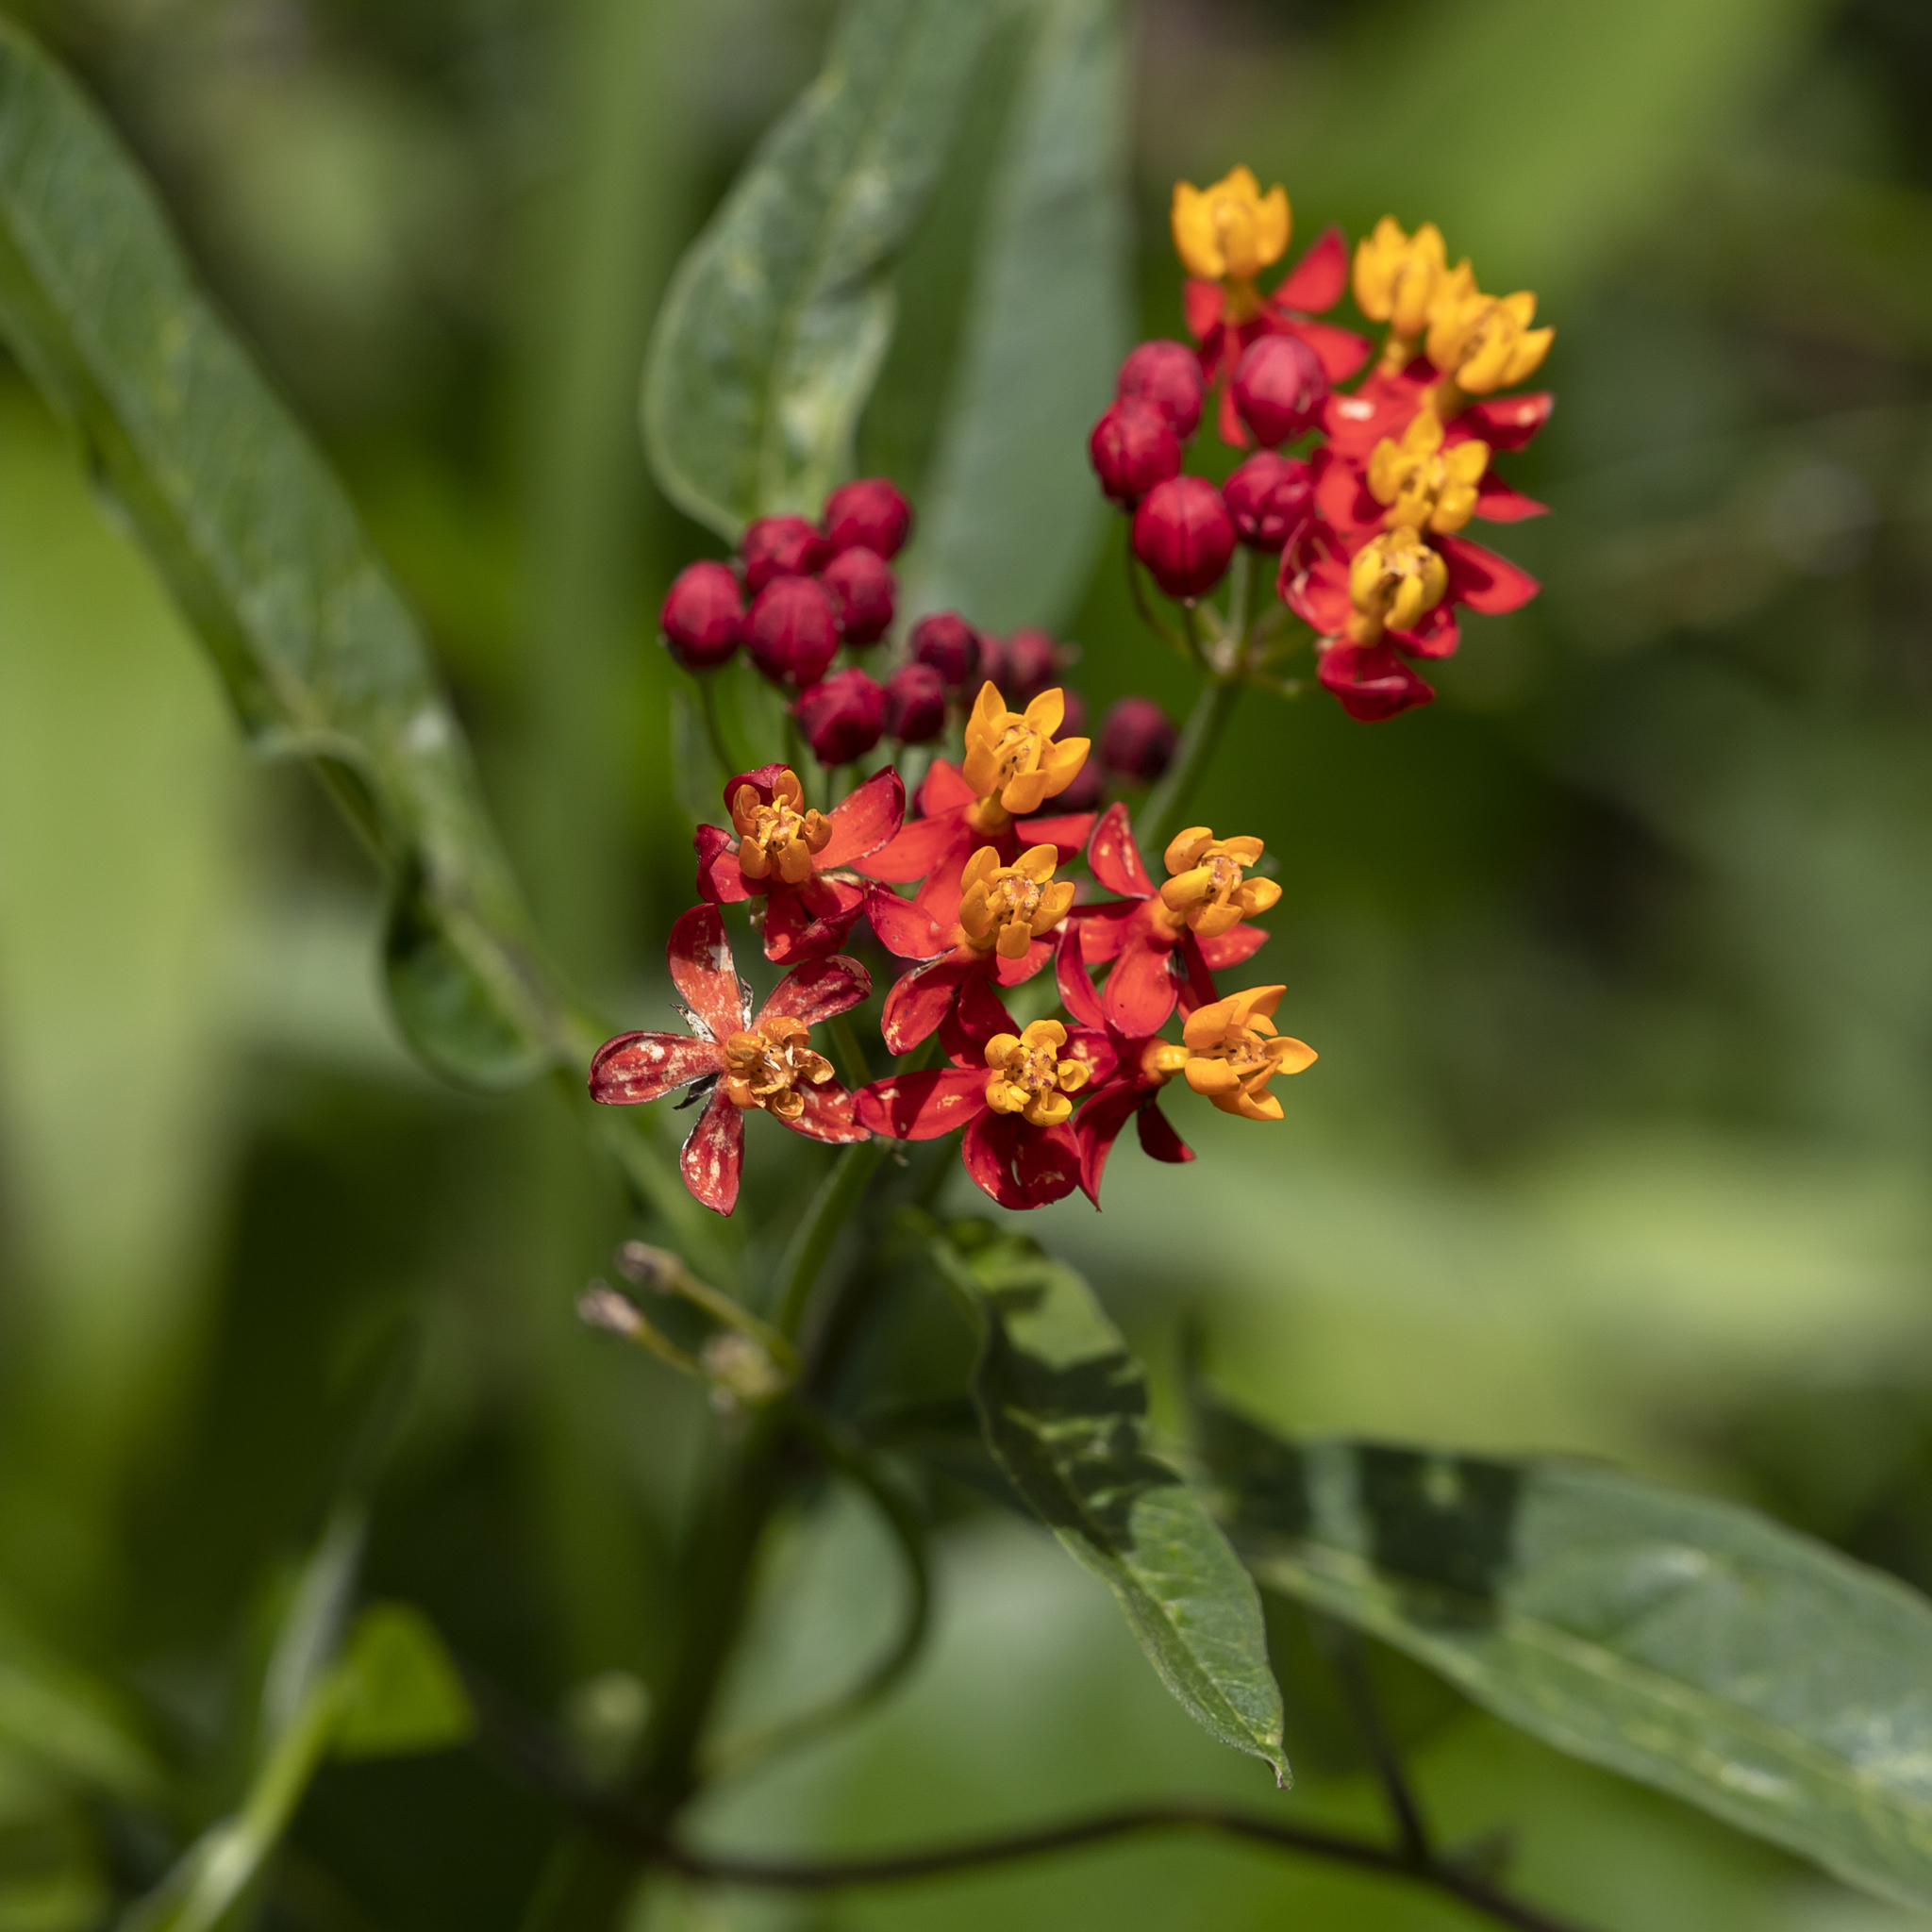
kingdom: Plantae
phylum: Tracheophyta
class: Magnoliopsida
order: Gentianales
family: Apocynaceae
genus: Asclepias
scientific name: Asclepias curassavica
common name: Bloodflower
